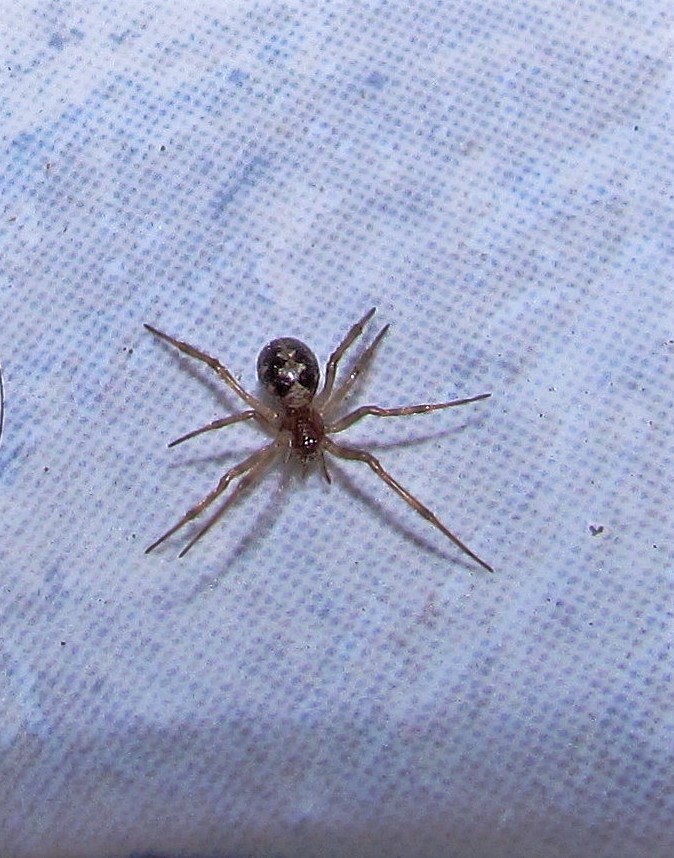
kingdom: Animalia
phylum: Arthropoda
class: Arachnida
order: Araneae
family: Theridiidae
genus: Steatoda
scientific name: Steatoda triangulosa
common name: Triangulate bud spider
